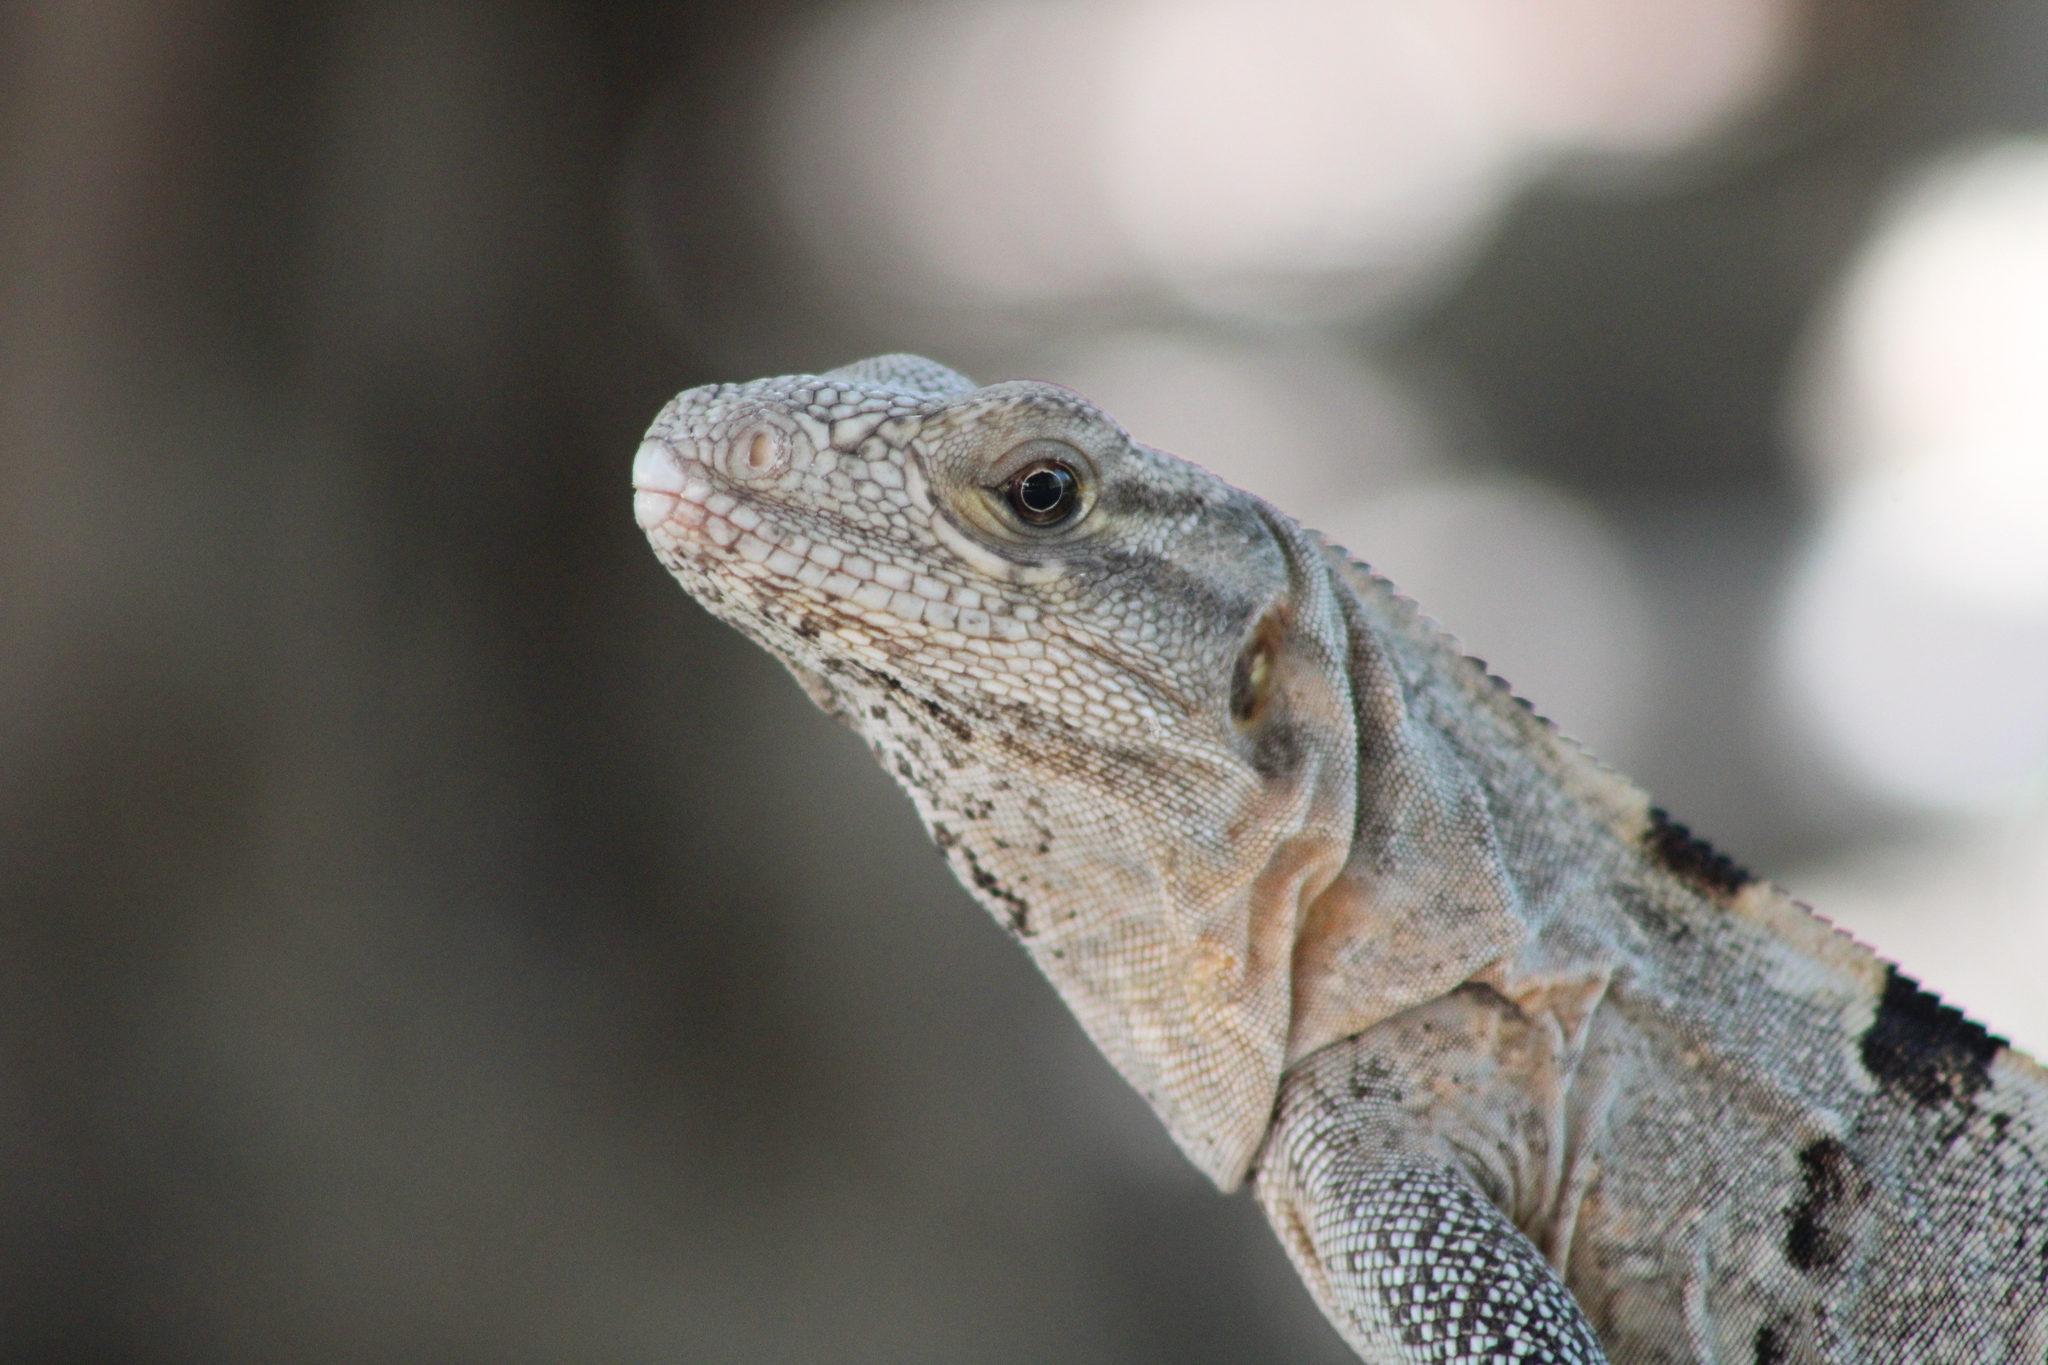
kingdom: Animalia
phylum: Chordata
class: Squamata
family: Iguanidae
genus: Ctenosaura
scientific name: Ctenosaura similis
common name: Black spiny-tailed iguana
